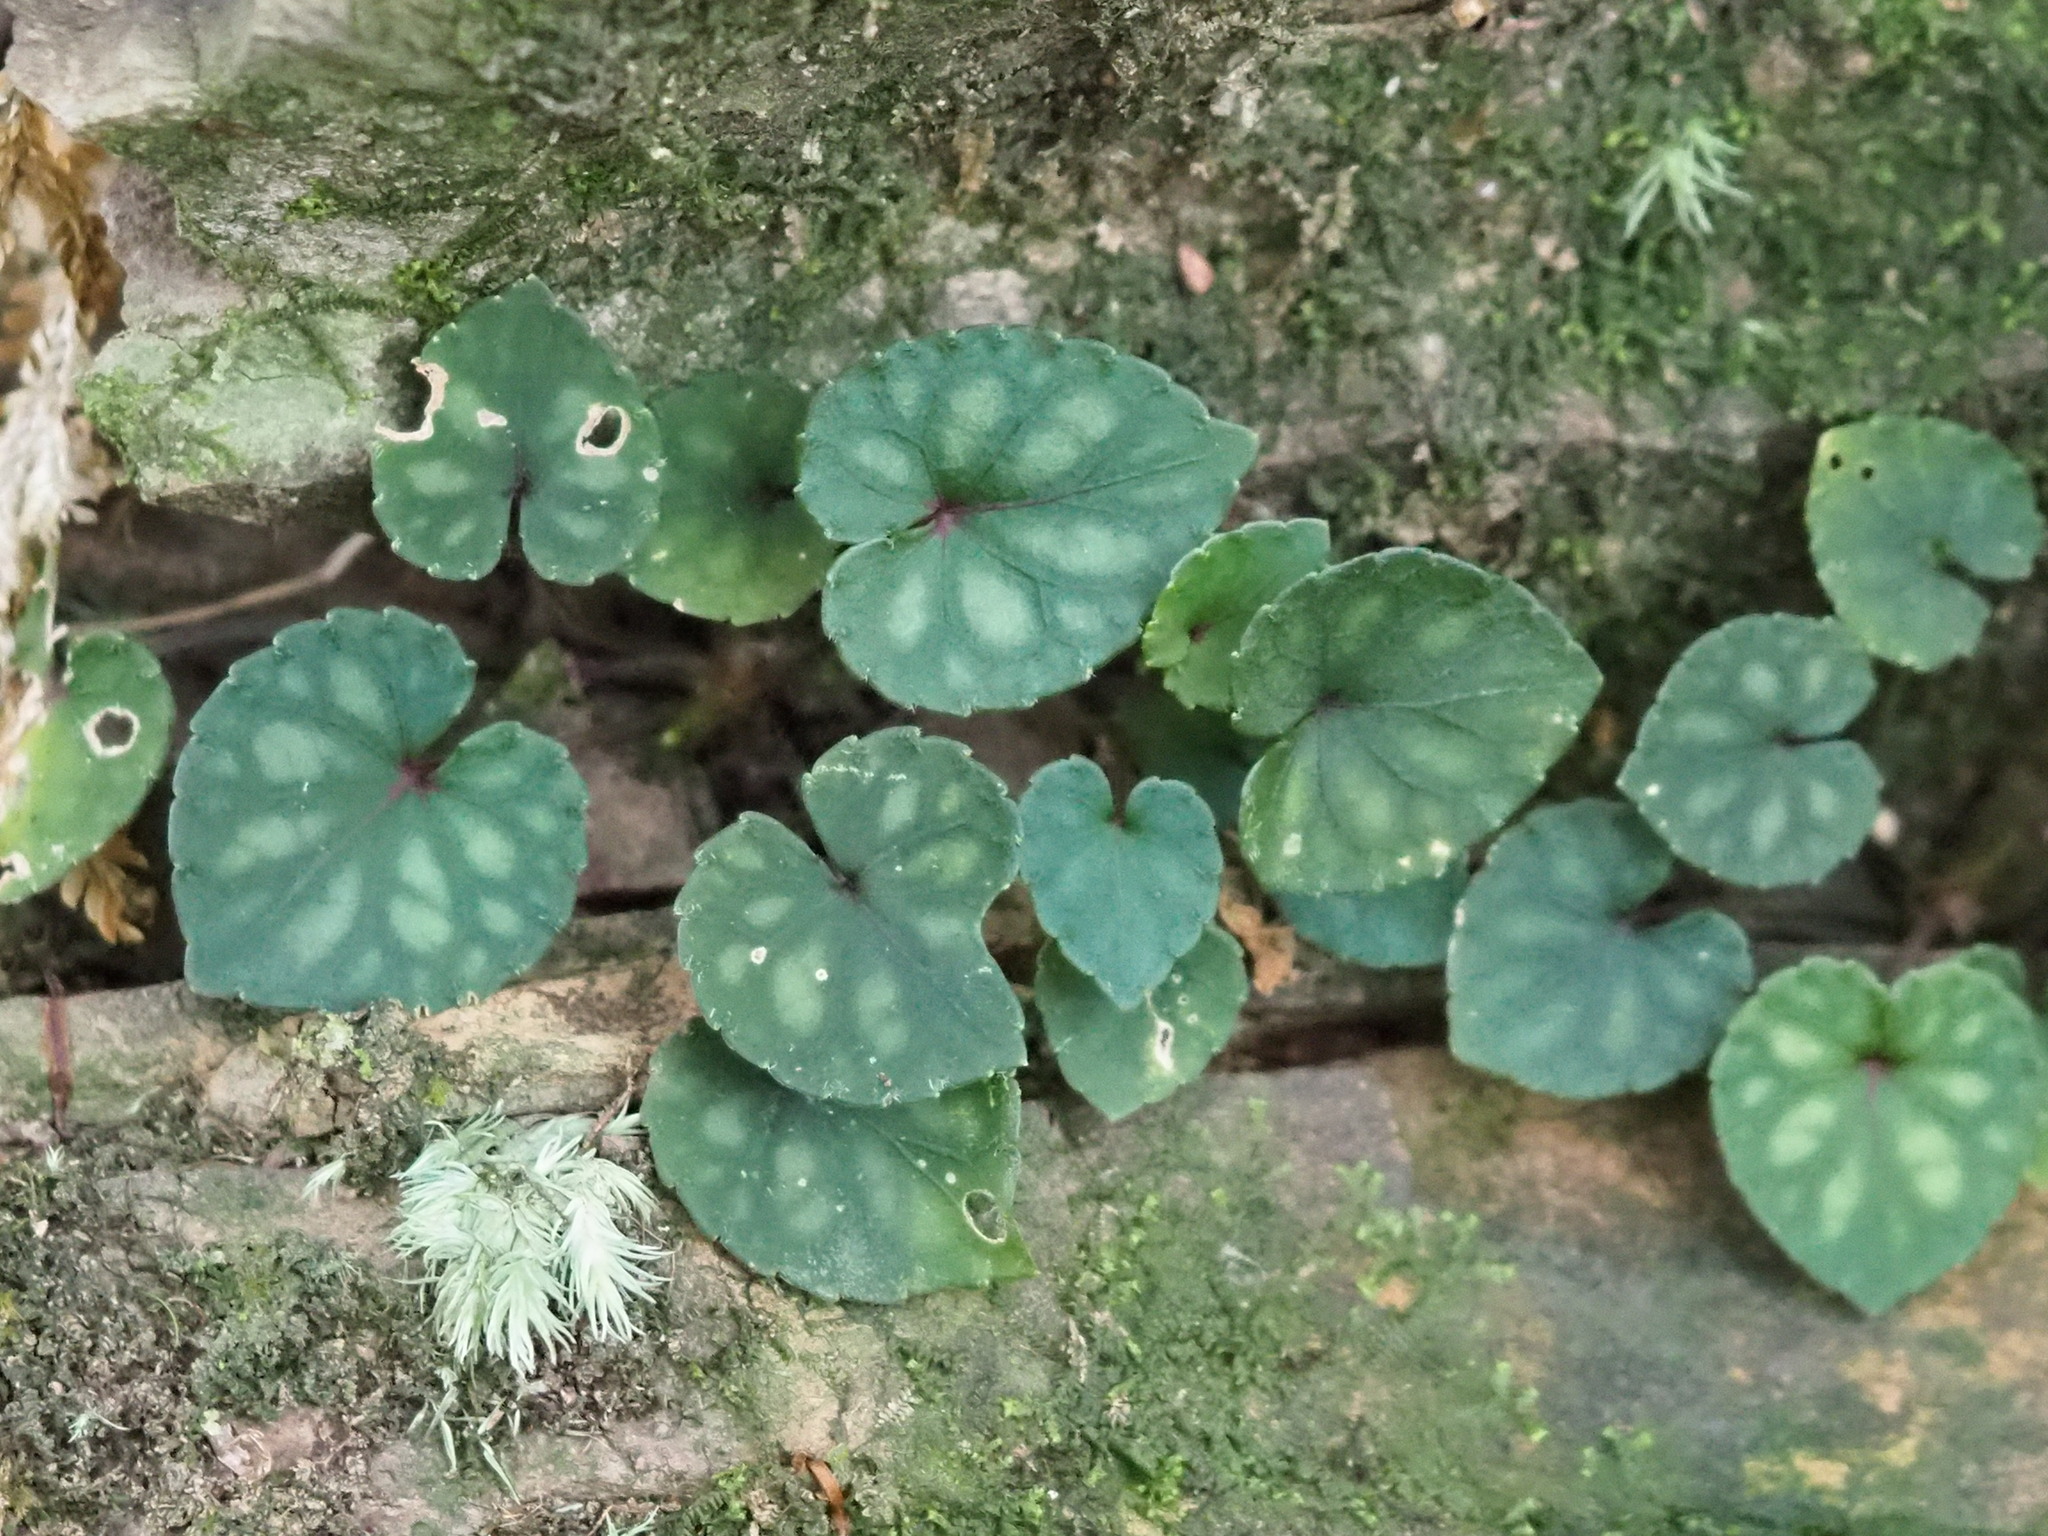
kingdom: Plantae
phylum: Tracheophyta
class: Magnoliopsida
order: Malpighiales
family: Violaceae
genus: Viola
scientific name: Viola formosana
